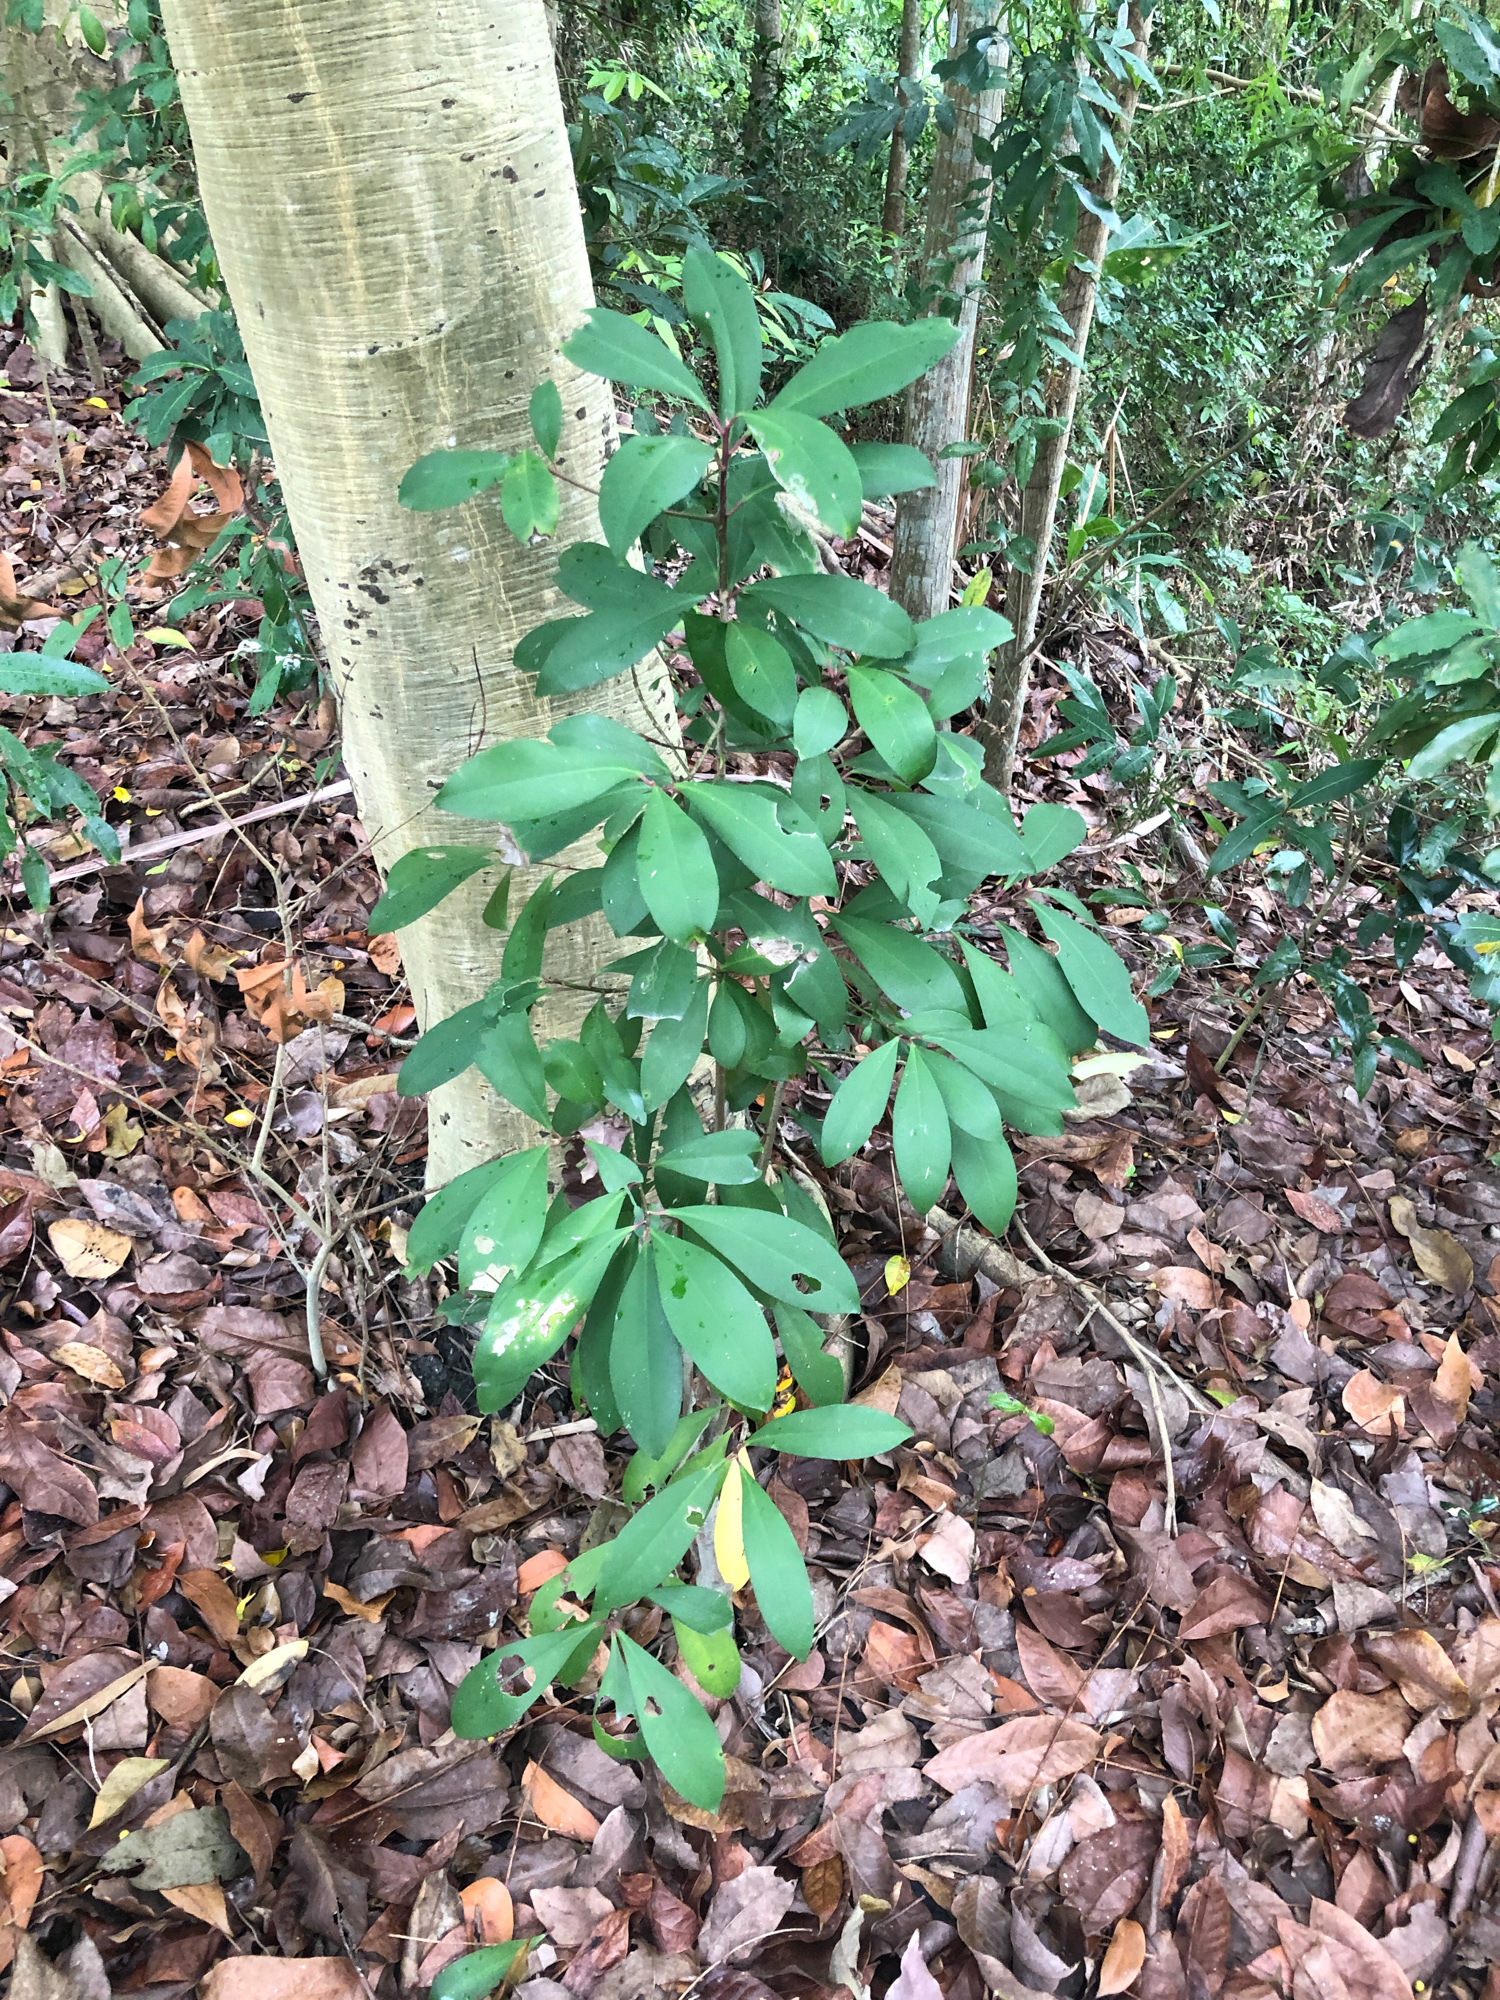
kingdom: Plantae
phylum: Tracheophyta
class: Magnoliopsida
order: Ericales
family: Primulaceae
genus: Ardisia
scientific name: Ardisia sieboldii
